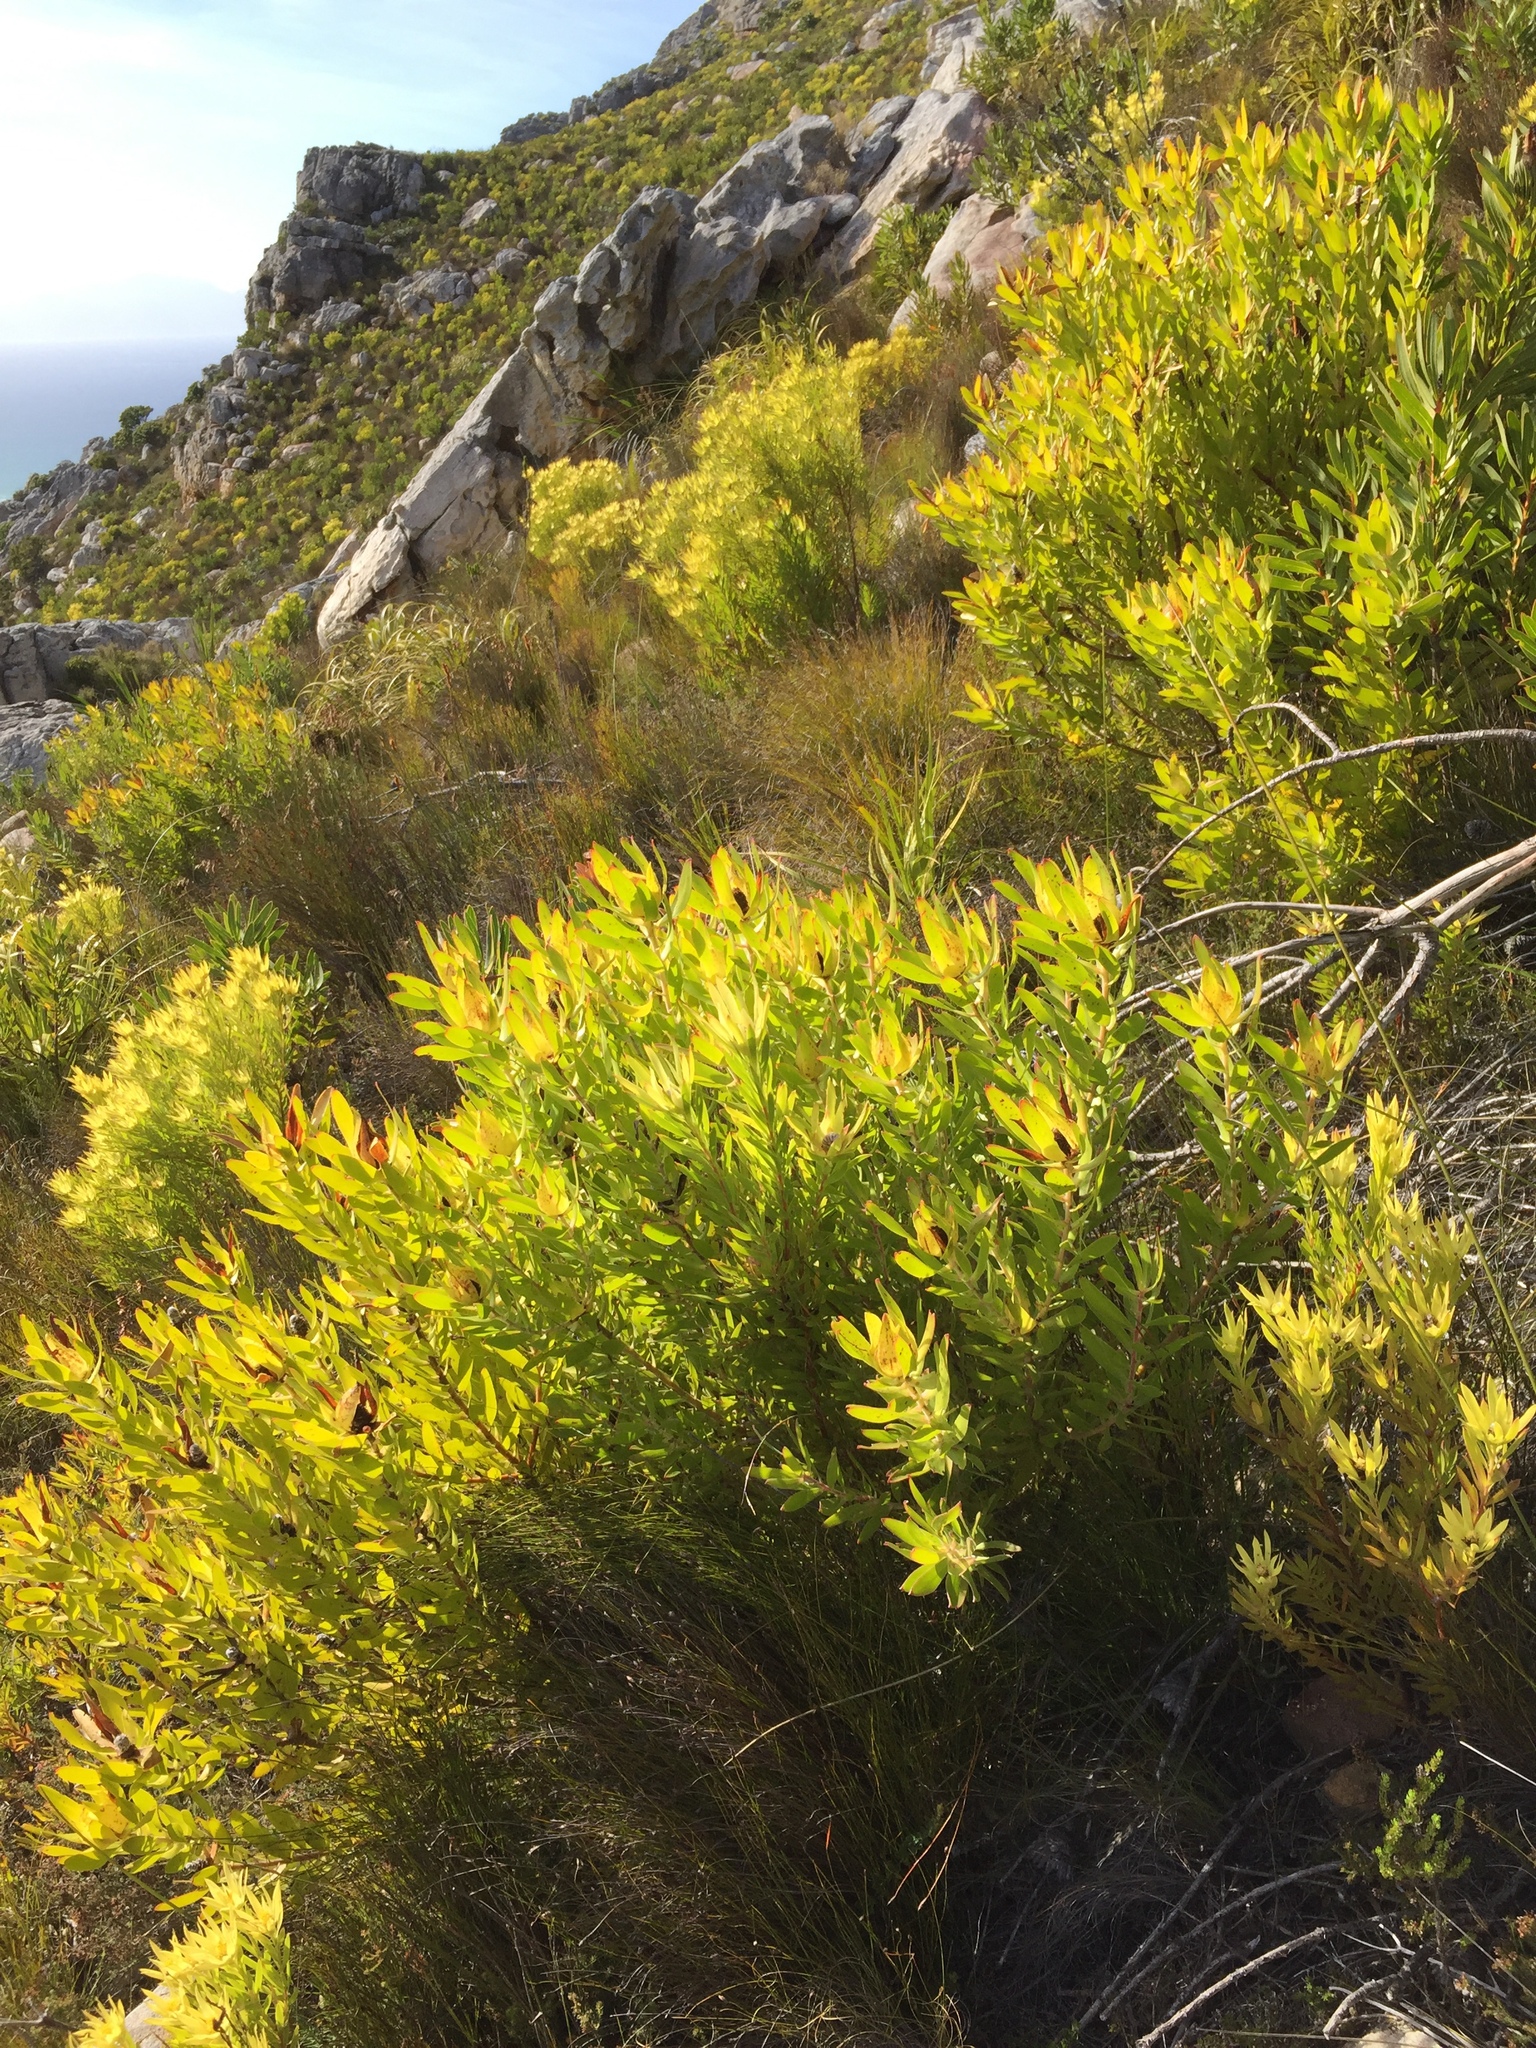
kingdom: Plantae
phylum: Tracheophyta
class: Magnoliopsida
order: Proteales
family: Proteaceae
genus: Leucadendron
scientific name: Leucadendron xanthoconus
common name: Sickle-leaf conebush
